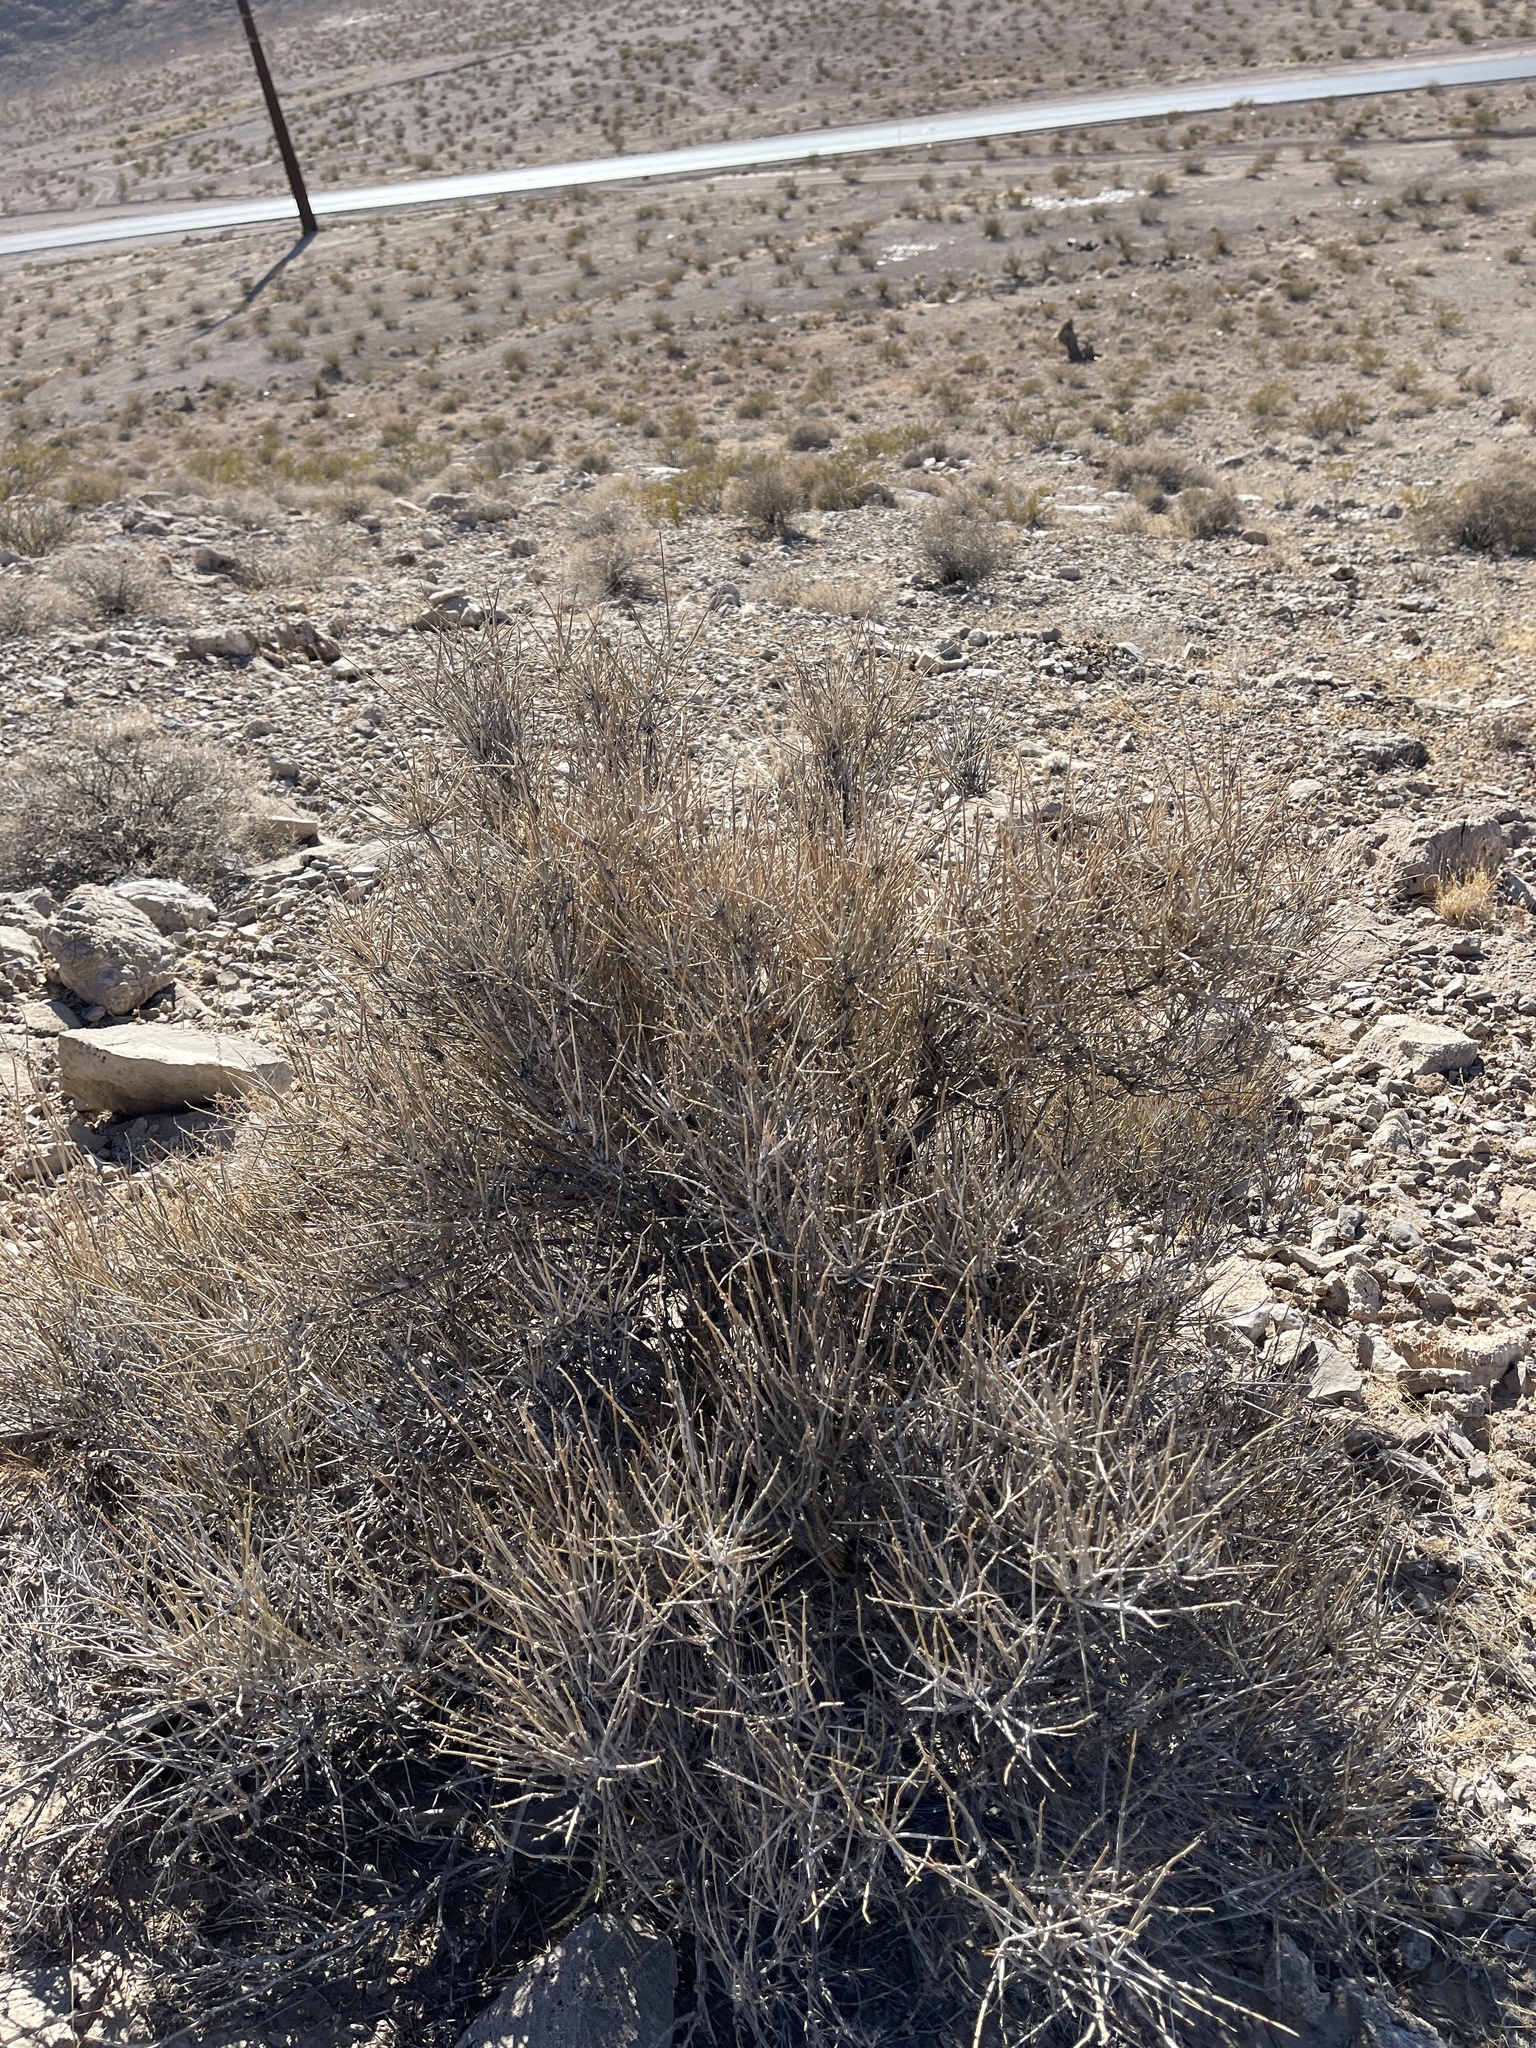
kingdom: Plantae
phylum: Tracheophyta
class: Gnetopsida
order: Ephedrales
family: Ephedraceae
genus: Ephedra
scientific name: Ephedra nevadensis
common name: Gray ephedra
